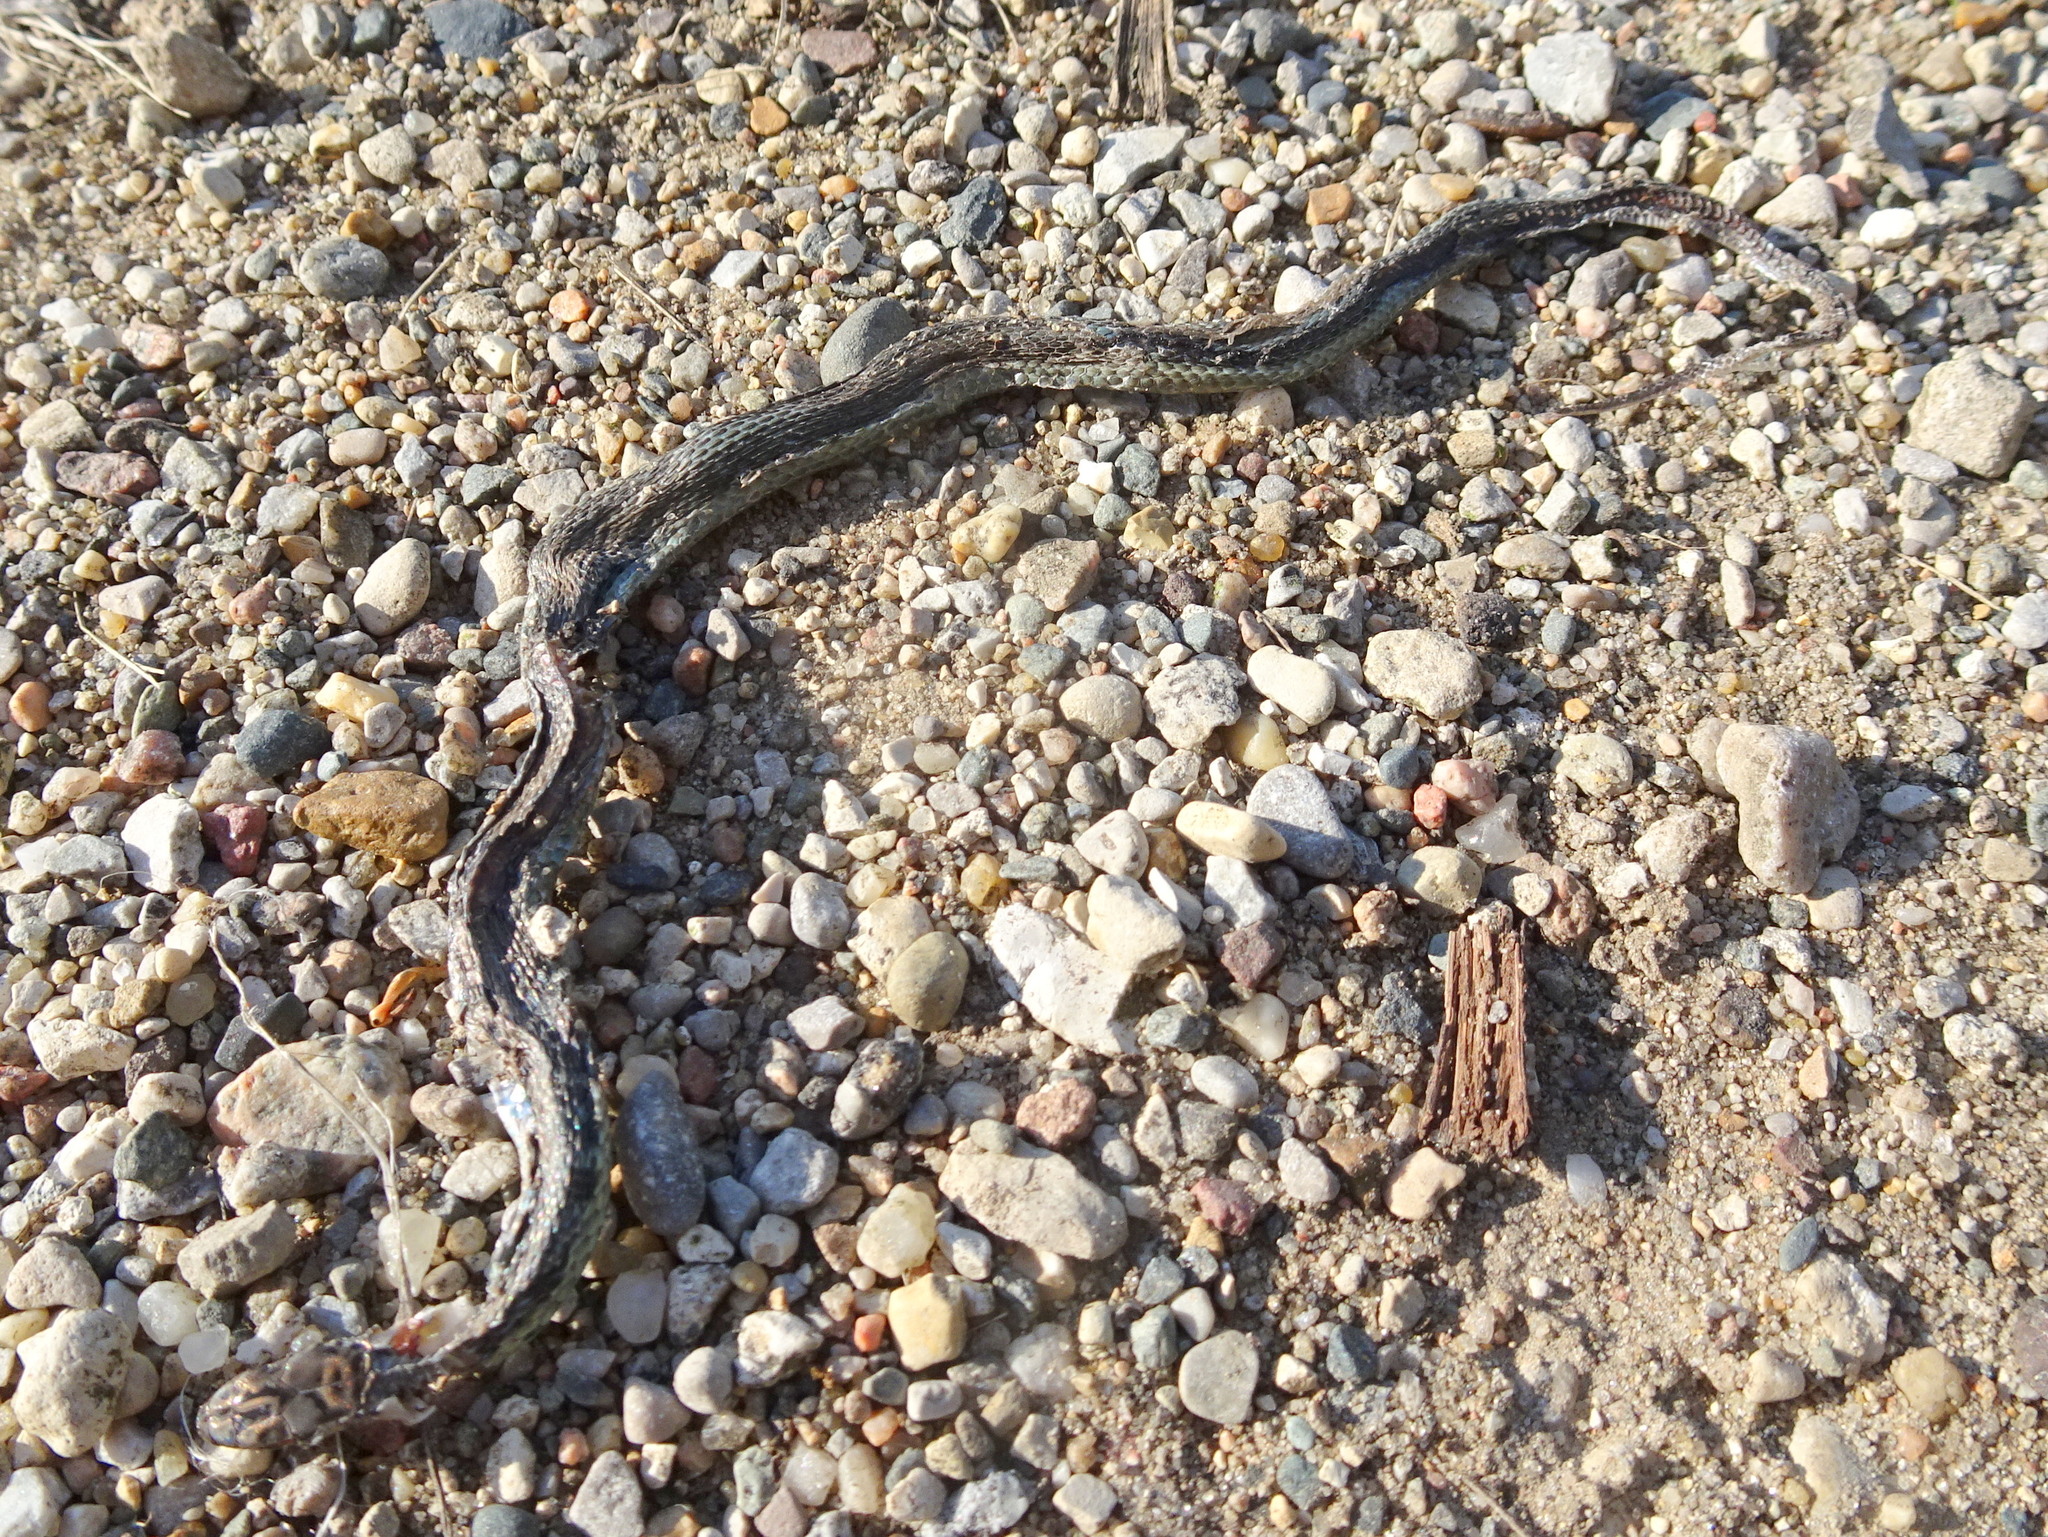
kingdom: Animalia
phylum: Chordata
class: Squamata
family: Colubridae
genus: Thamnophis
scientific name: Thamnophis sirtalis
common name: Common garter snake
